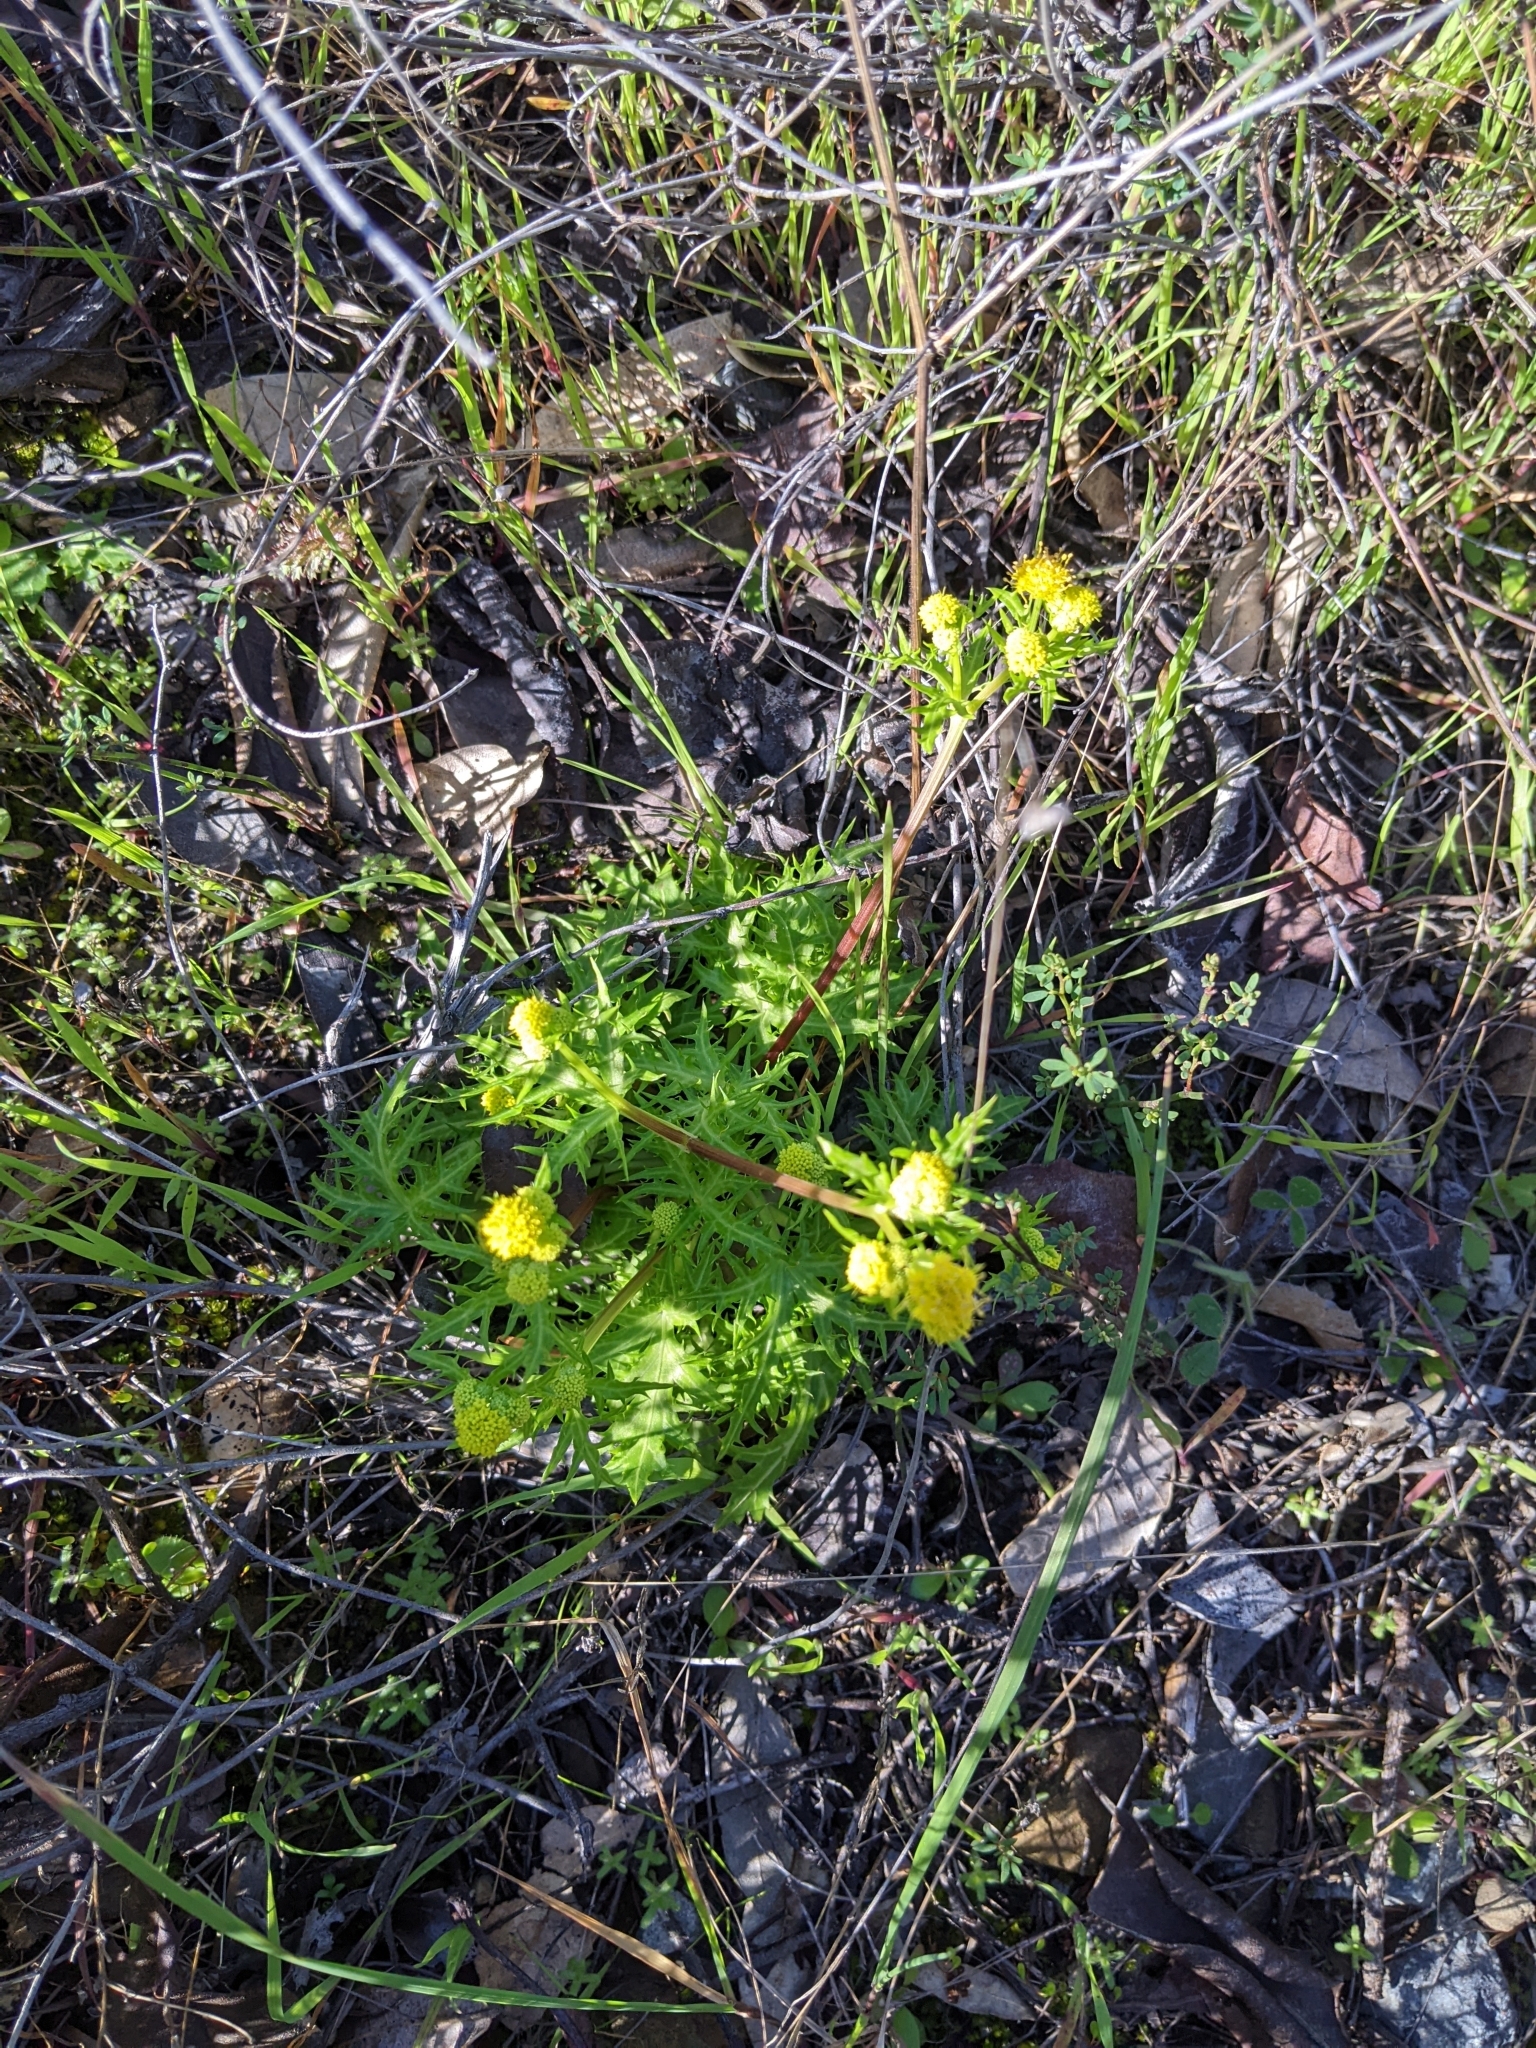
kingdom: Plantae
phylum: Tracheophyta
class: Magnoliopsida
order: Apiales
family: Apiaceae
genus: Sanicula
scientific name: Sanicula laciniata
